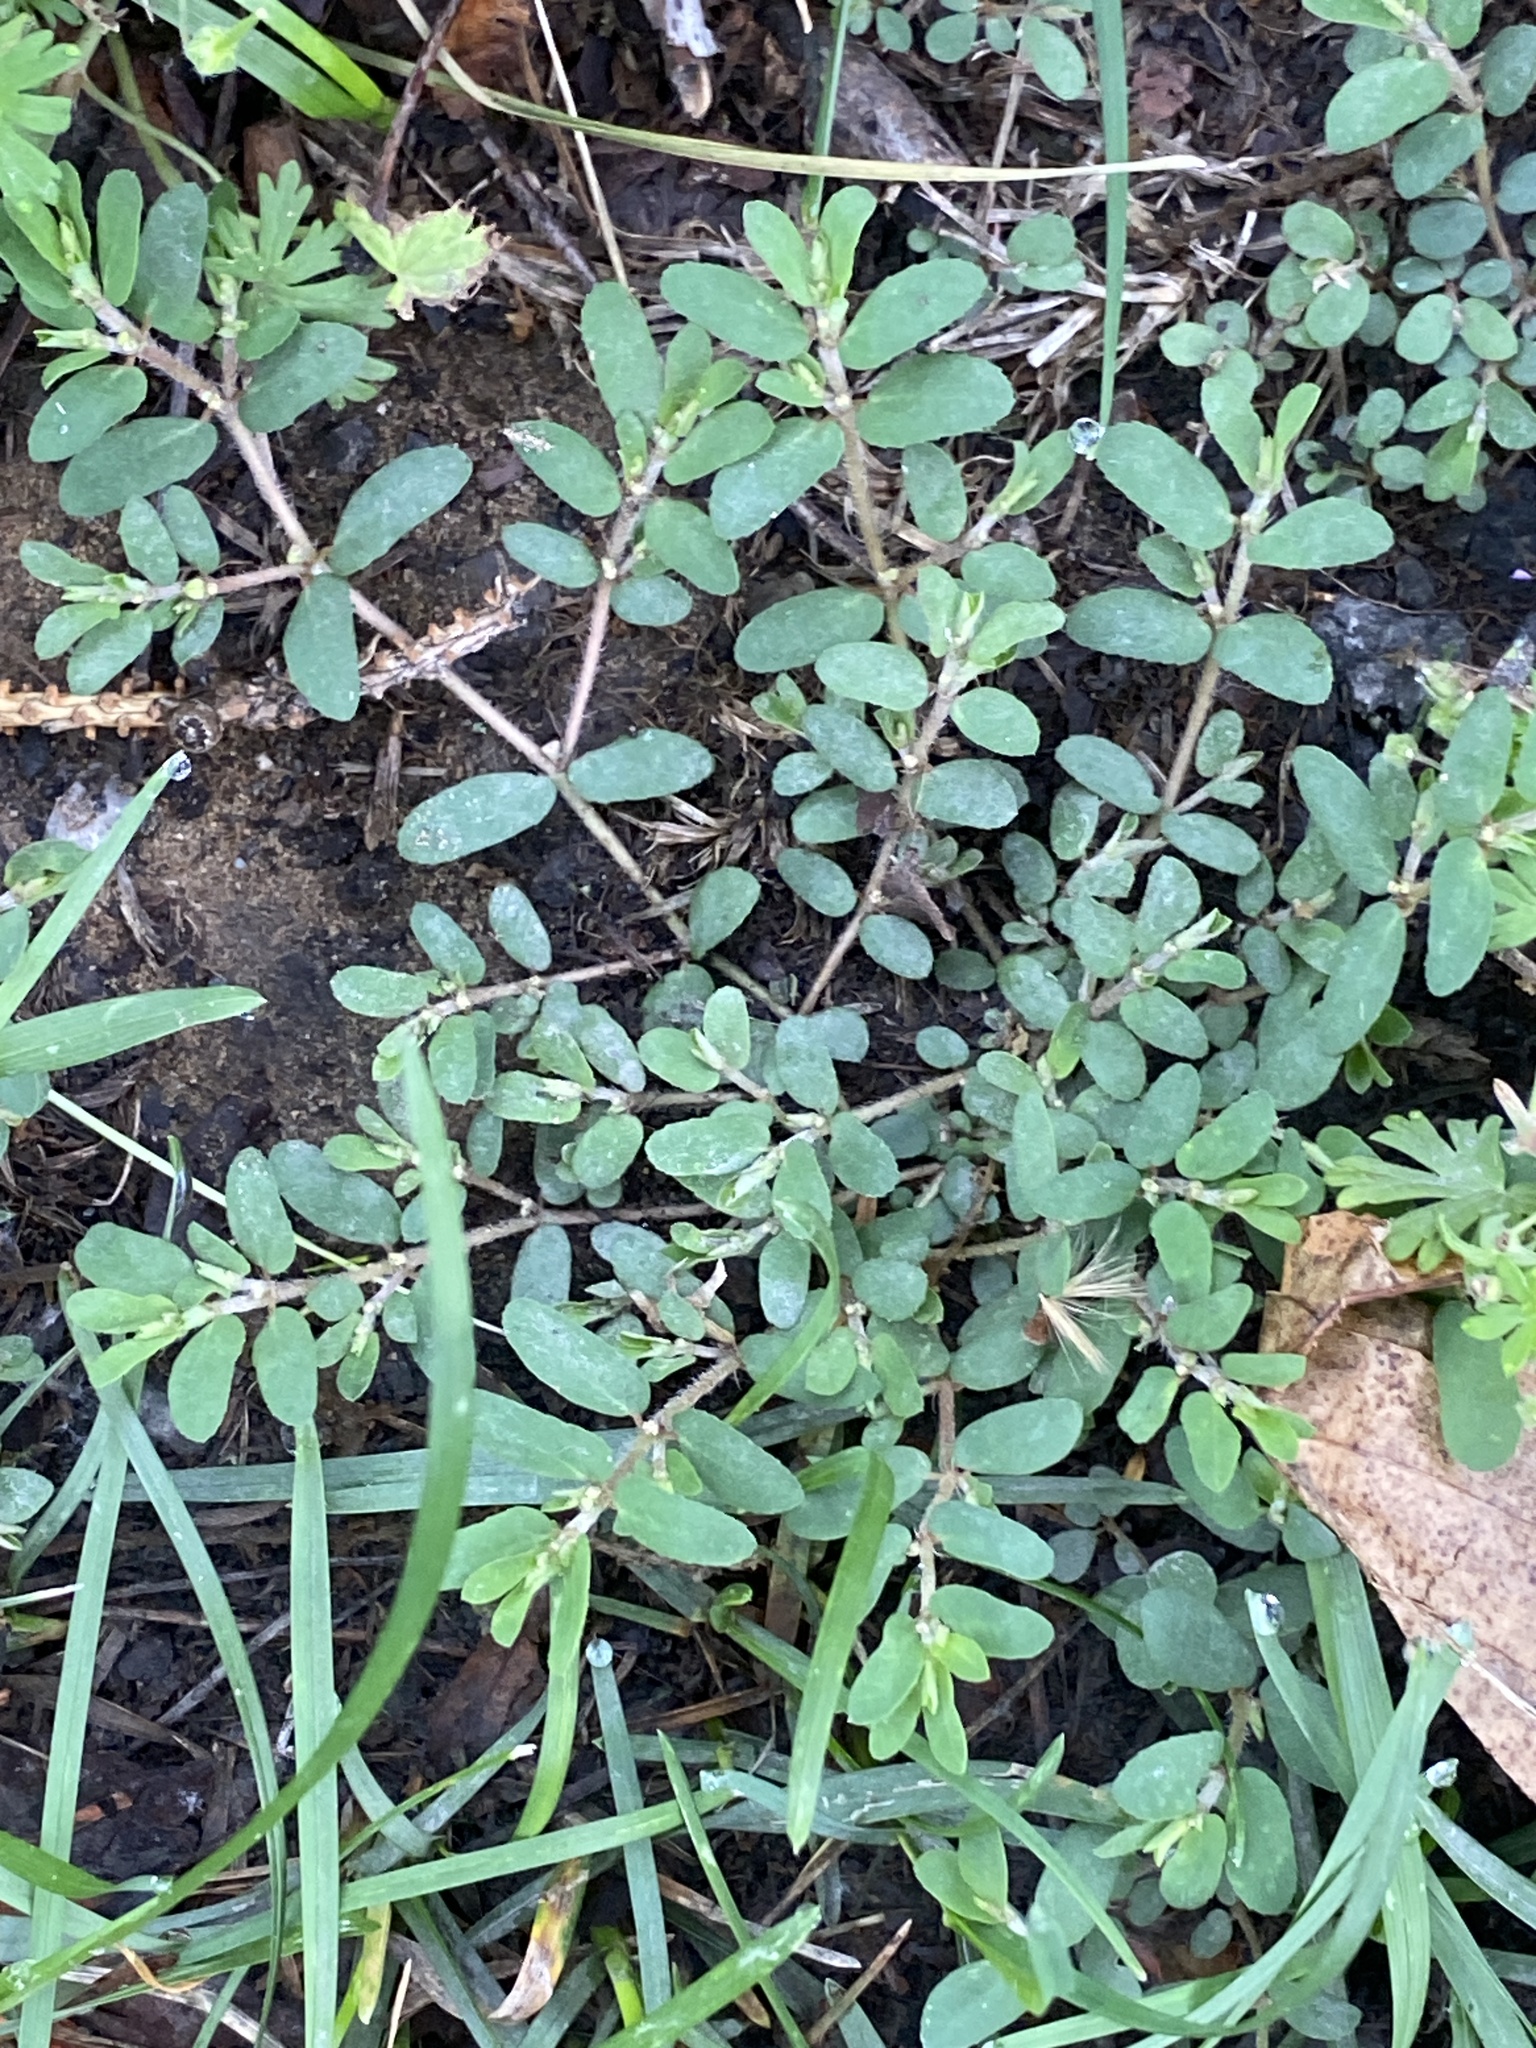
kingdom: Plantae
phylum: Tracheophyta
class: Magnoliopsida
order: Malpighiales
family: Euphorbiaceae
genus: Euphorbia
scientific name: Euphorbia maculata
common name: Spotted spurge
